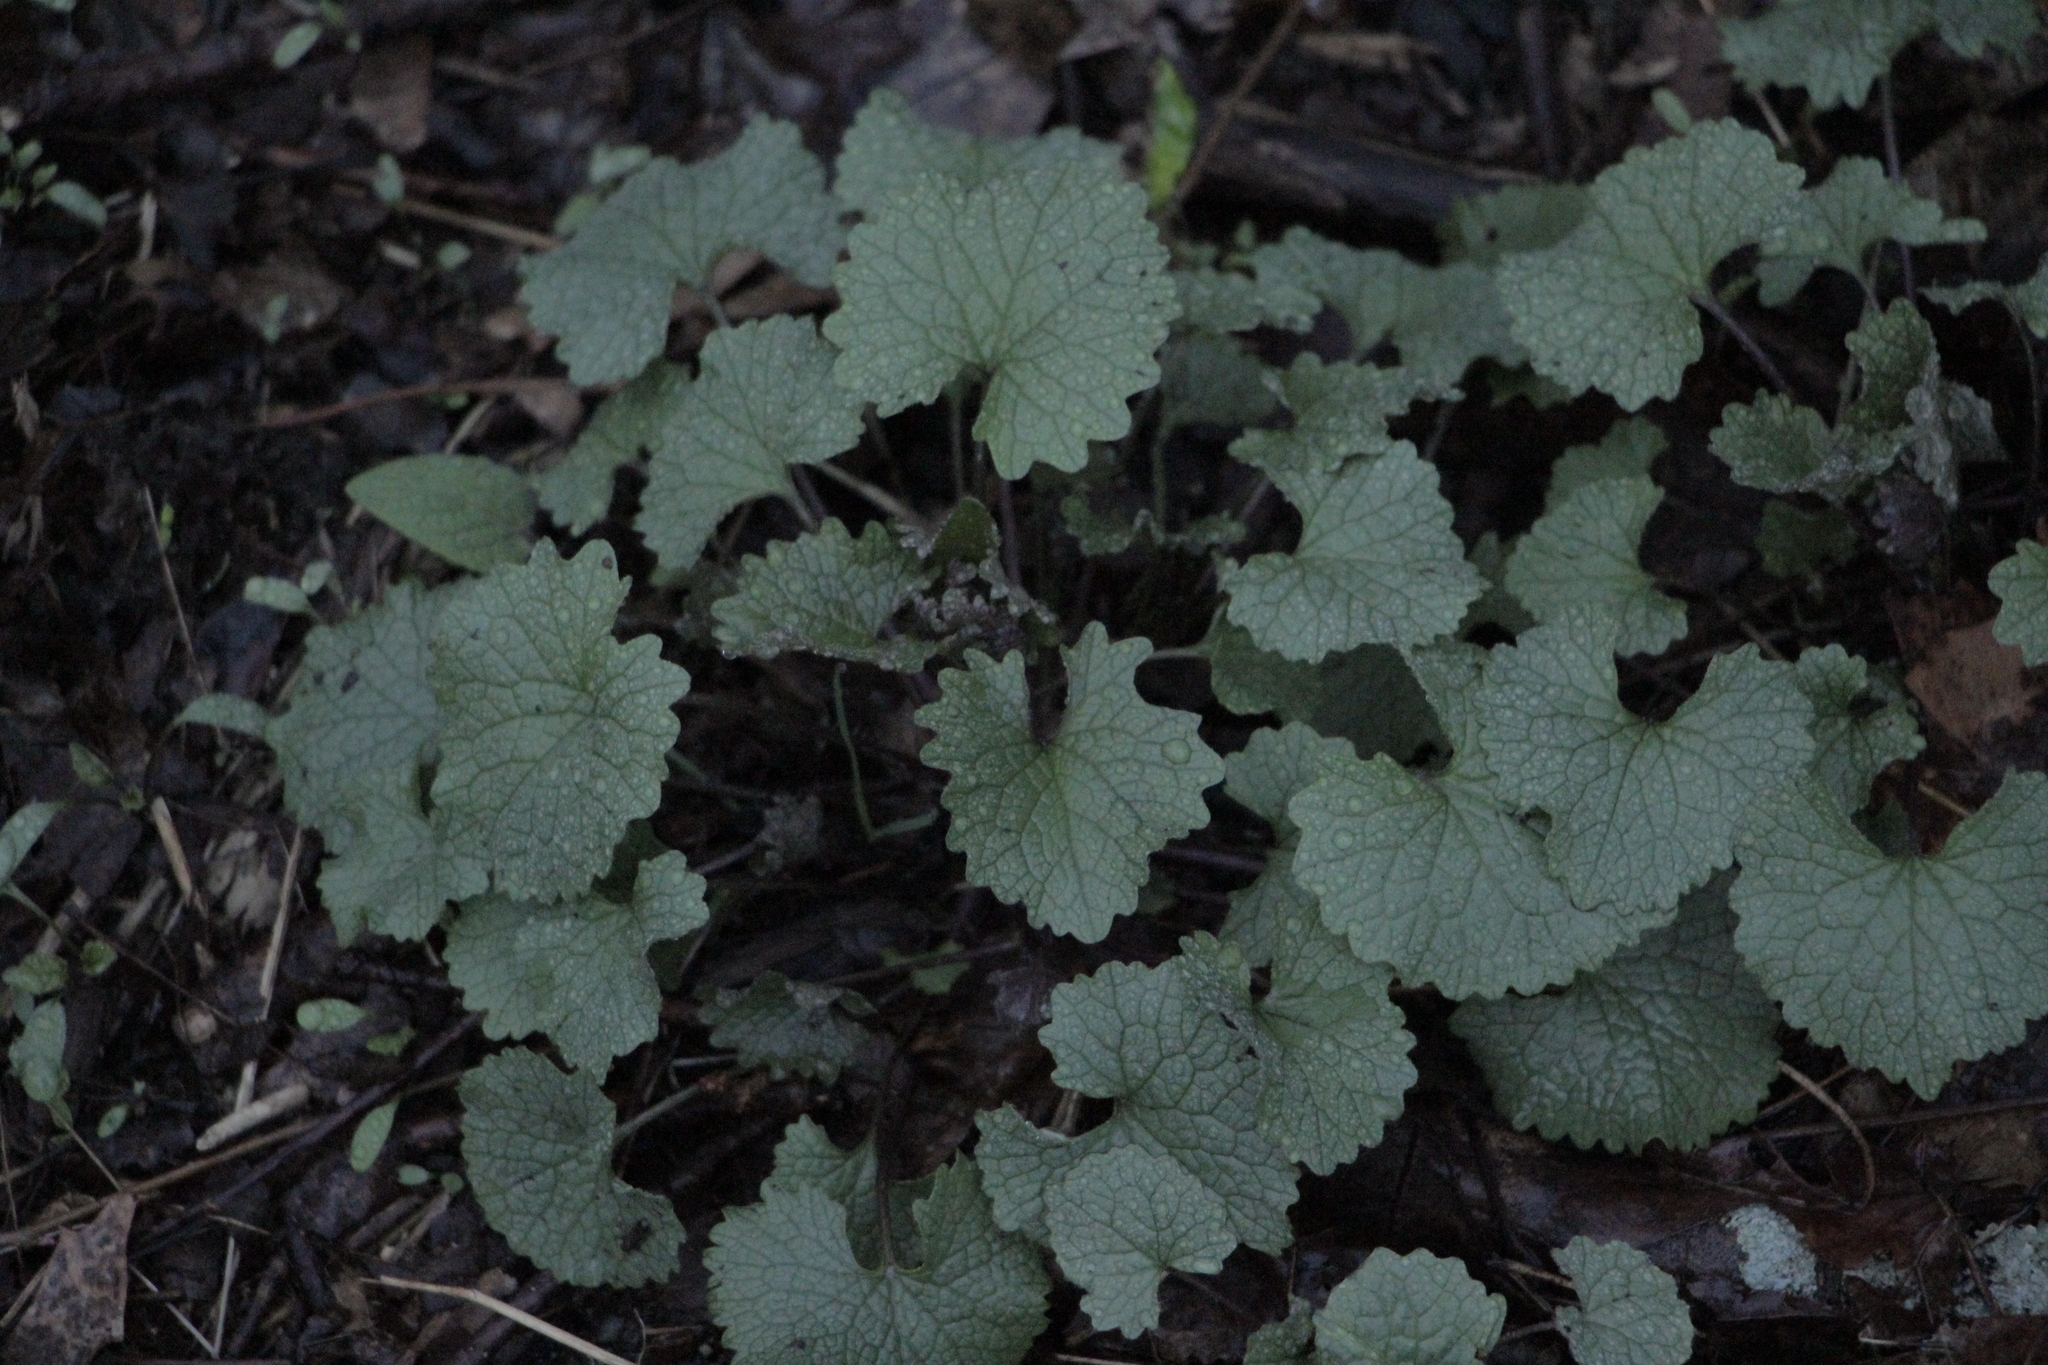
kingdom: Plantae
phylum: Tracheophyta
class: Magnoliopsida
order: Brassicales
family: Brassicaceae
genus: Alliaria
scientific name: Alliaria petiolata
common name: Garlic mustard
